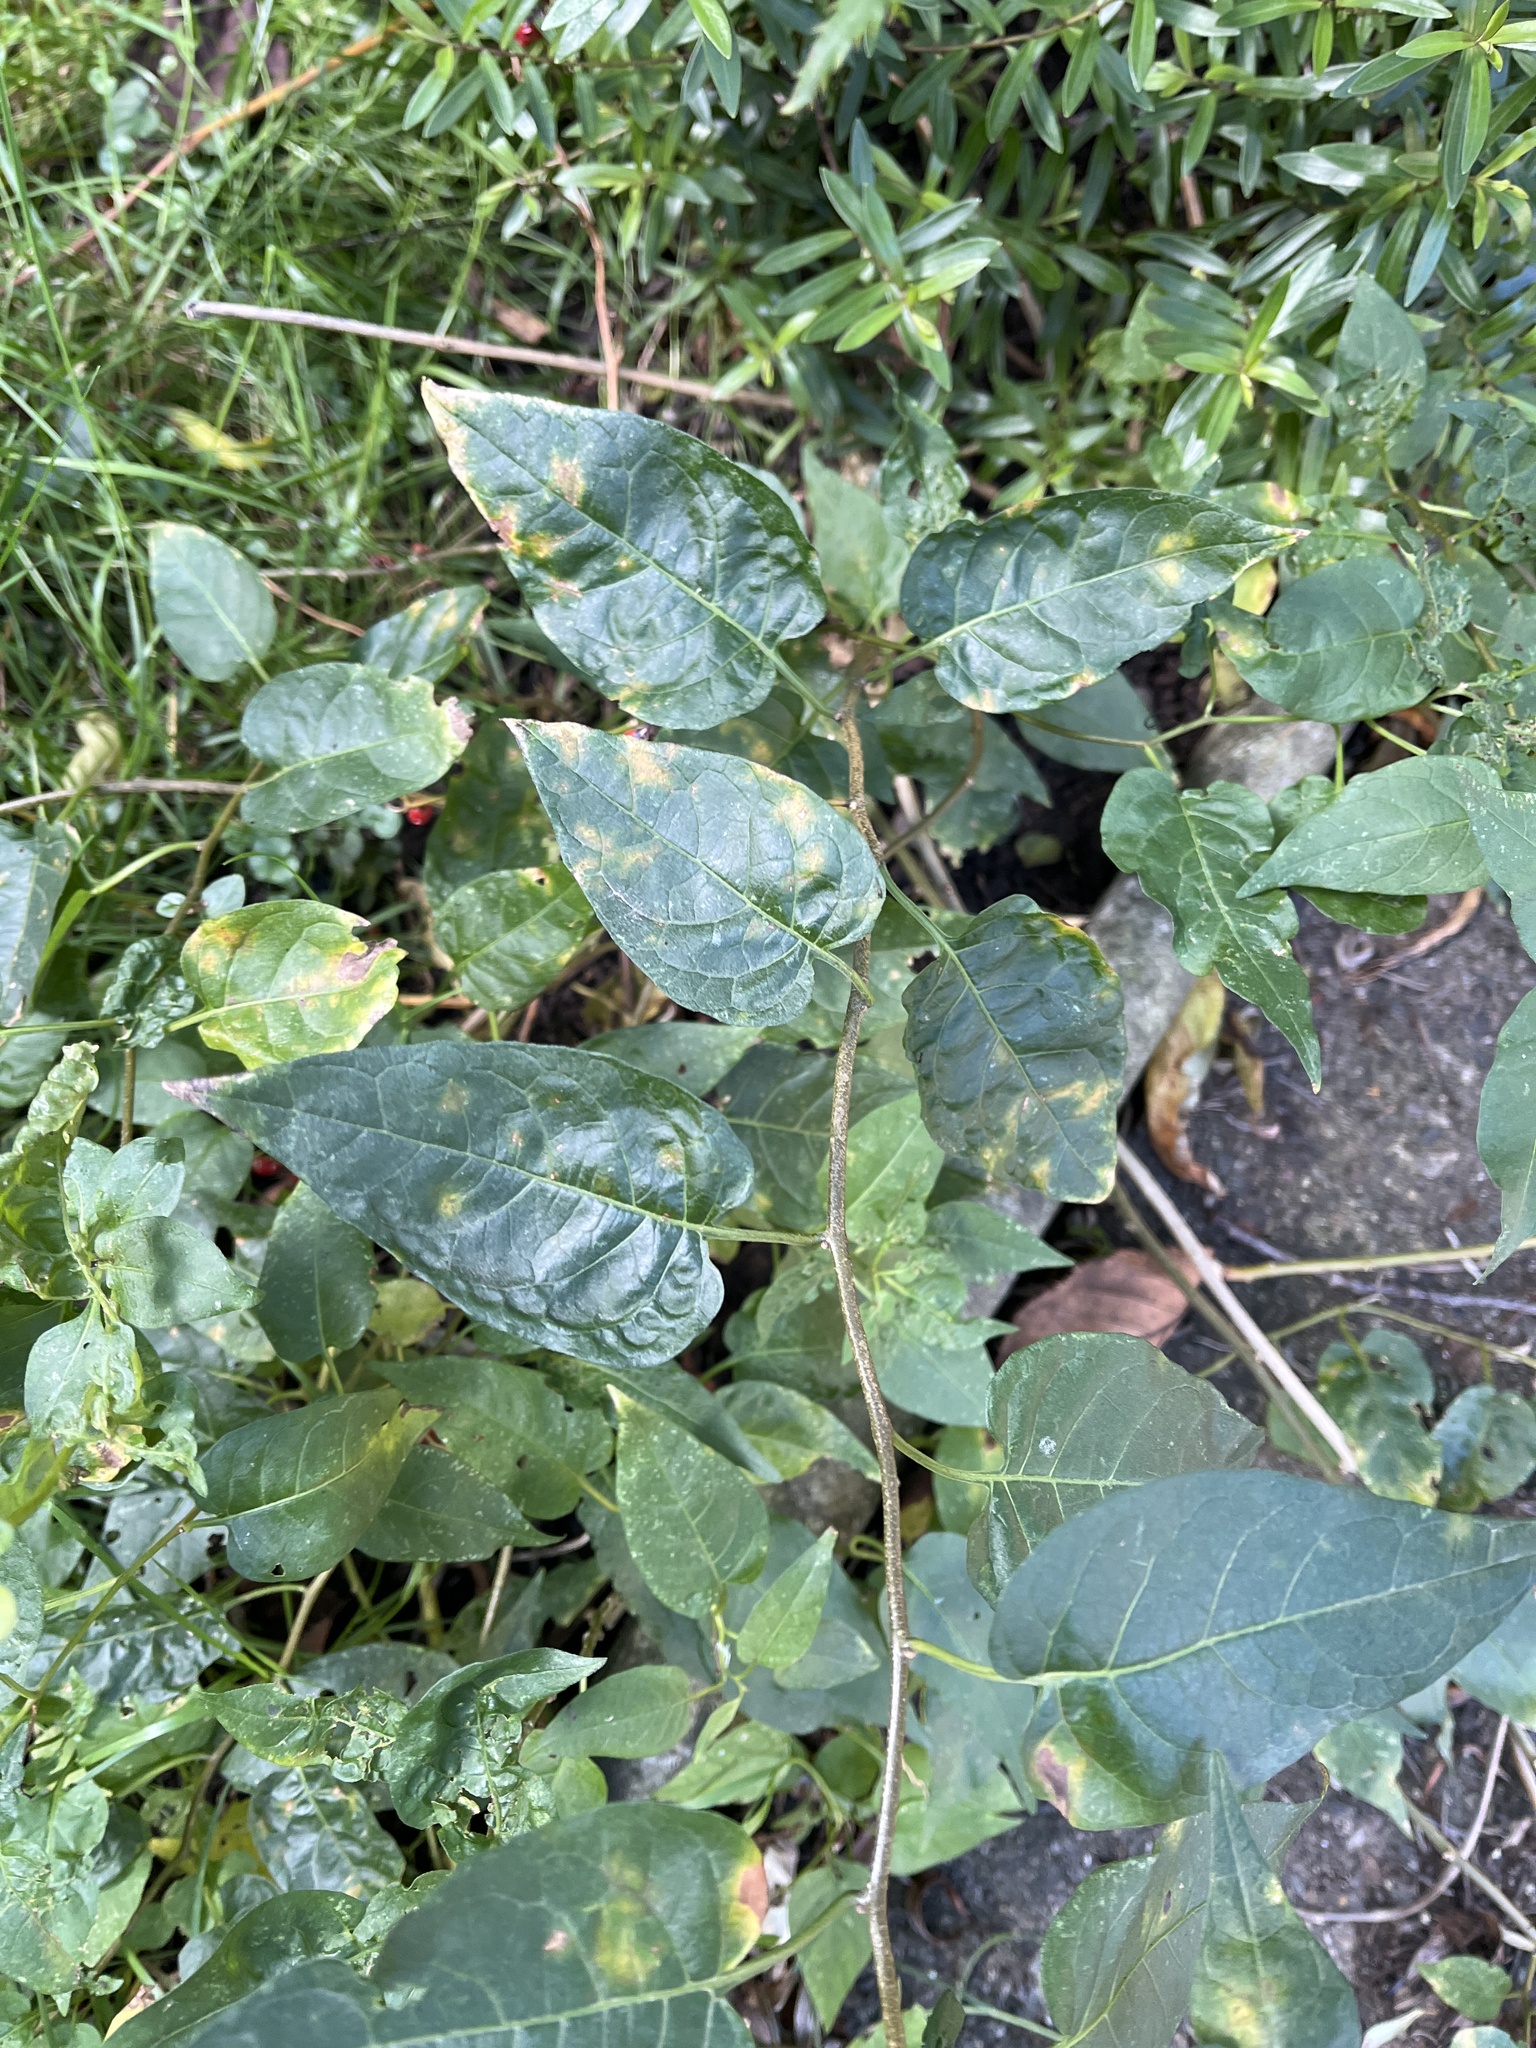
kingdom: Plantae
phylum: Tracheophyta
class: Magnoliopsida
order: Solanales
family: Solanaceae
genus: Solanum
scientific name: Solanum dulcamara
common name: Climbing nightshade
